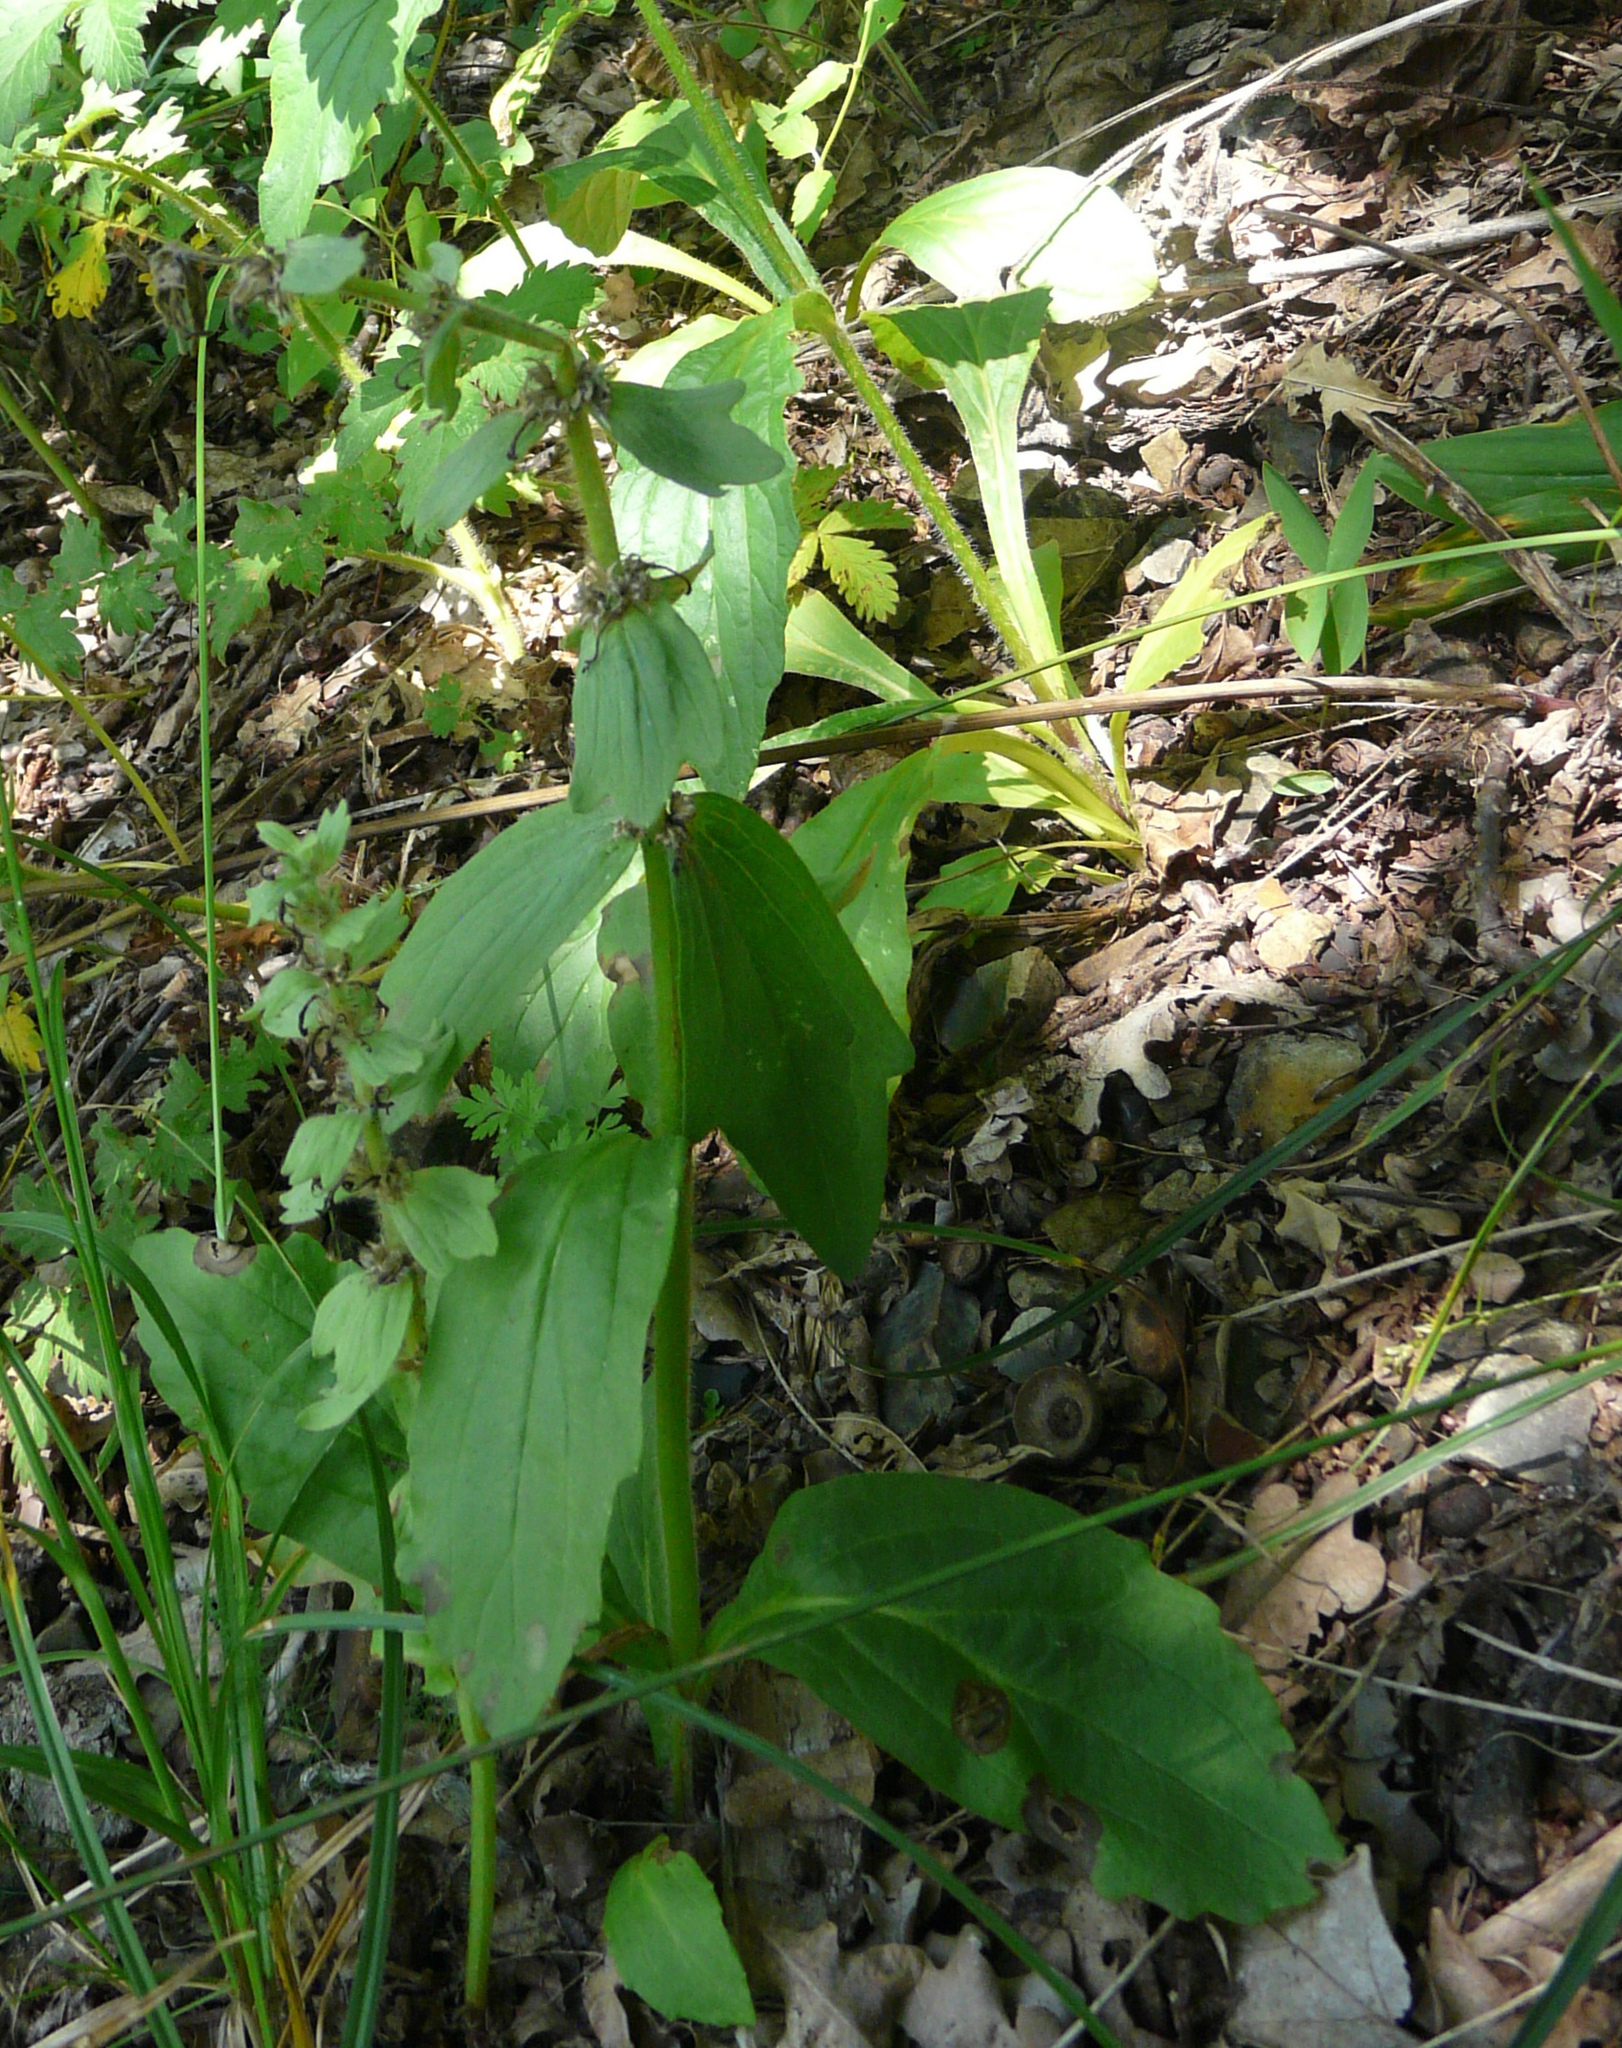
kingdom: Plantae
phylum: Tracheophyta
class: Magnoliopsida
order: Lamiales
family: Lamiaceae
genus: Ajuga
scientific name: Ajuga genevensis
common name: Blue bugle
